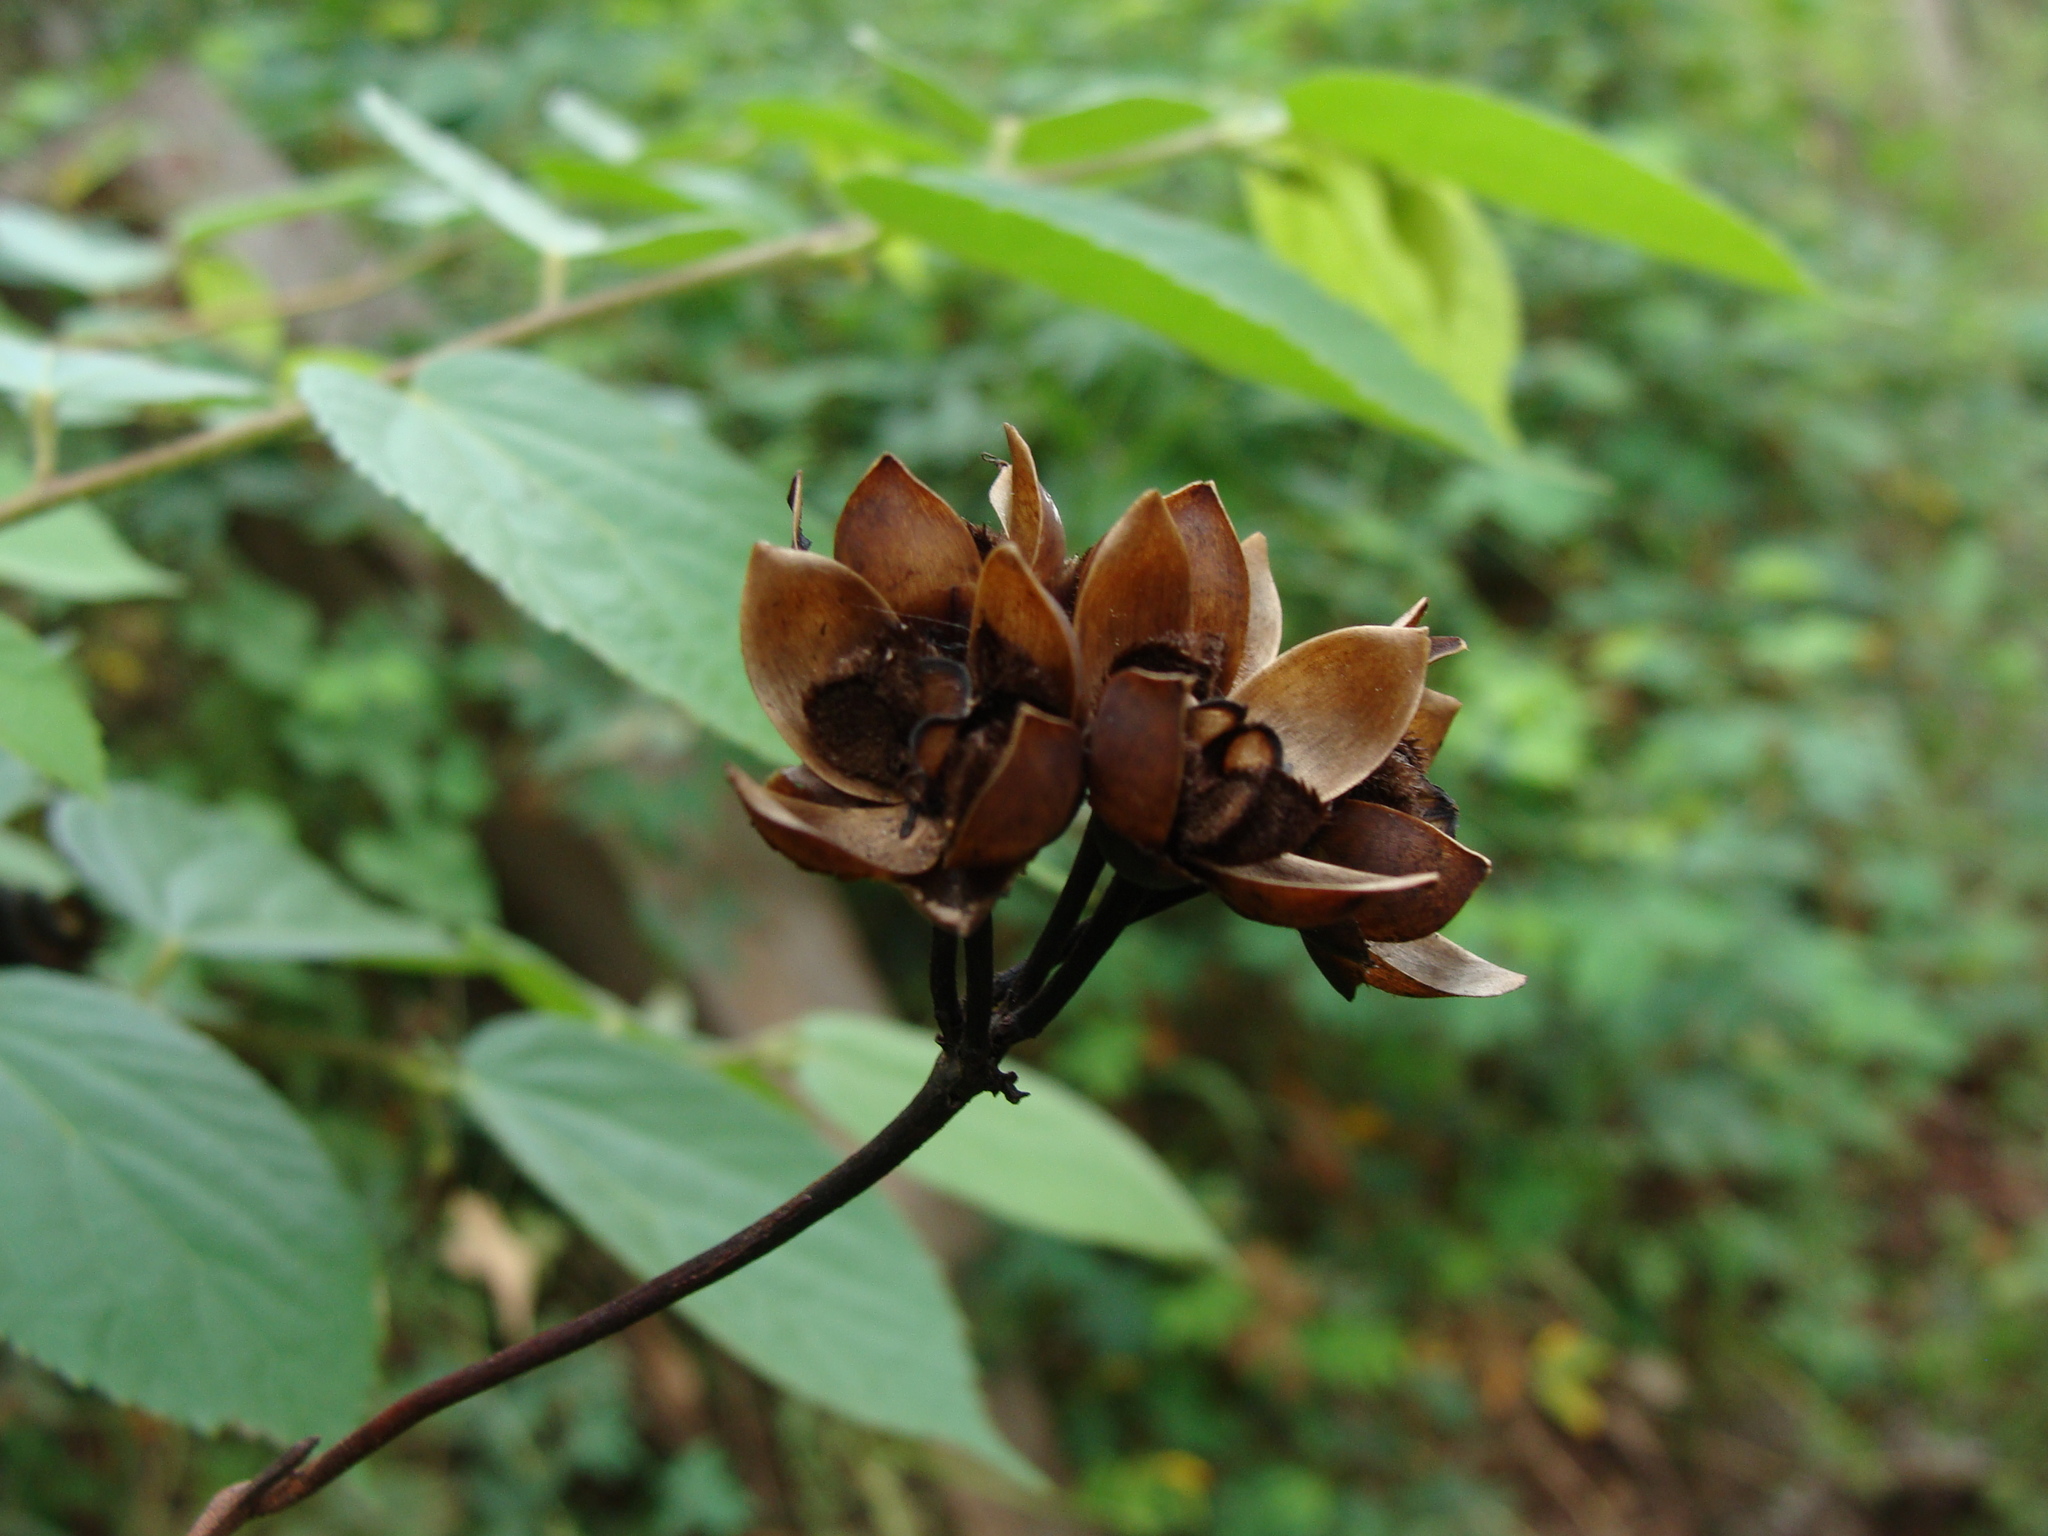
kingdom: Plantae
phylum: Tracheophyta
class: Magnoliopsida
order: Solanales
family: Convolvulaceae
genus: Camonea
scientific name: Camonea umbellata
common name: Hogvine
